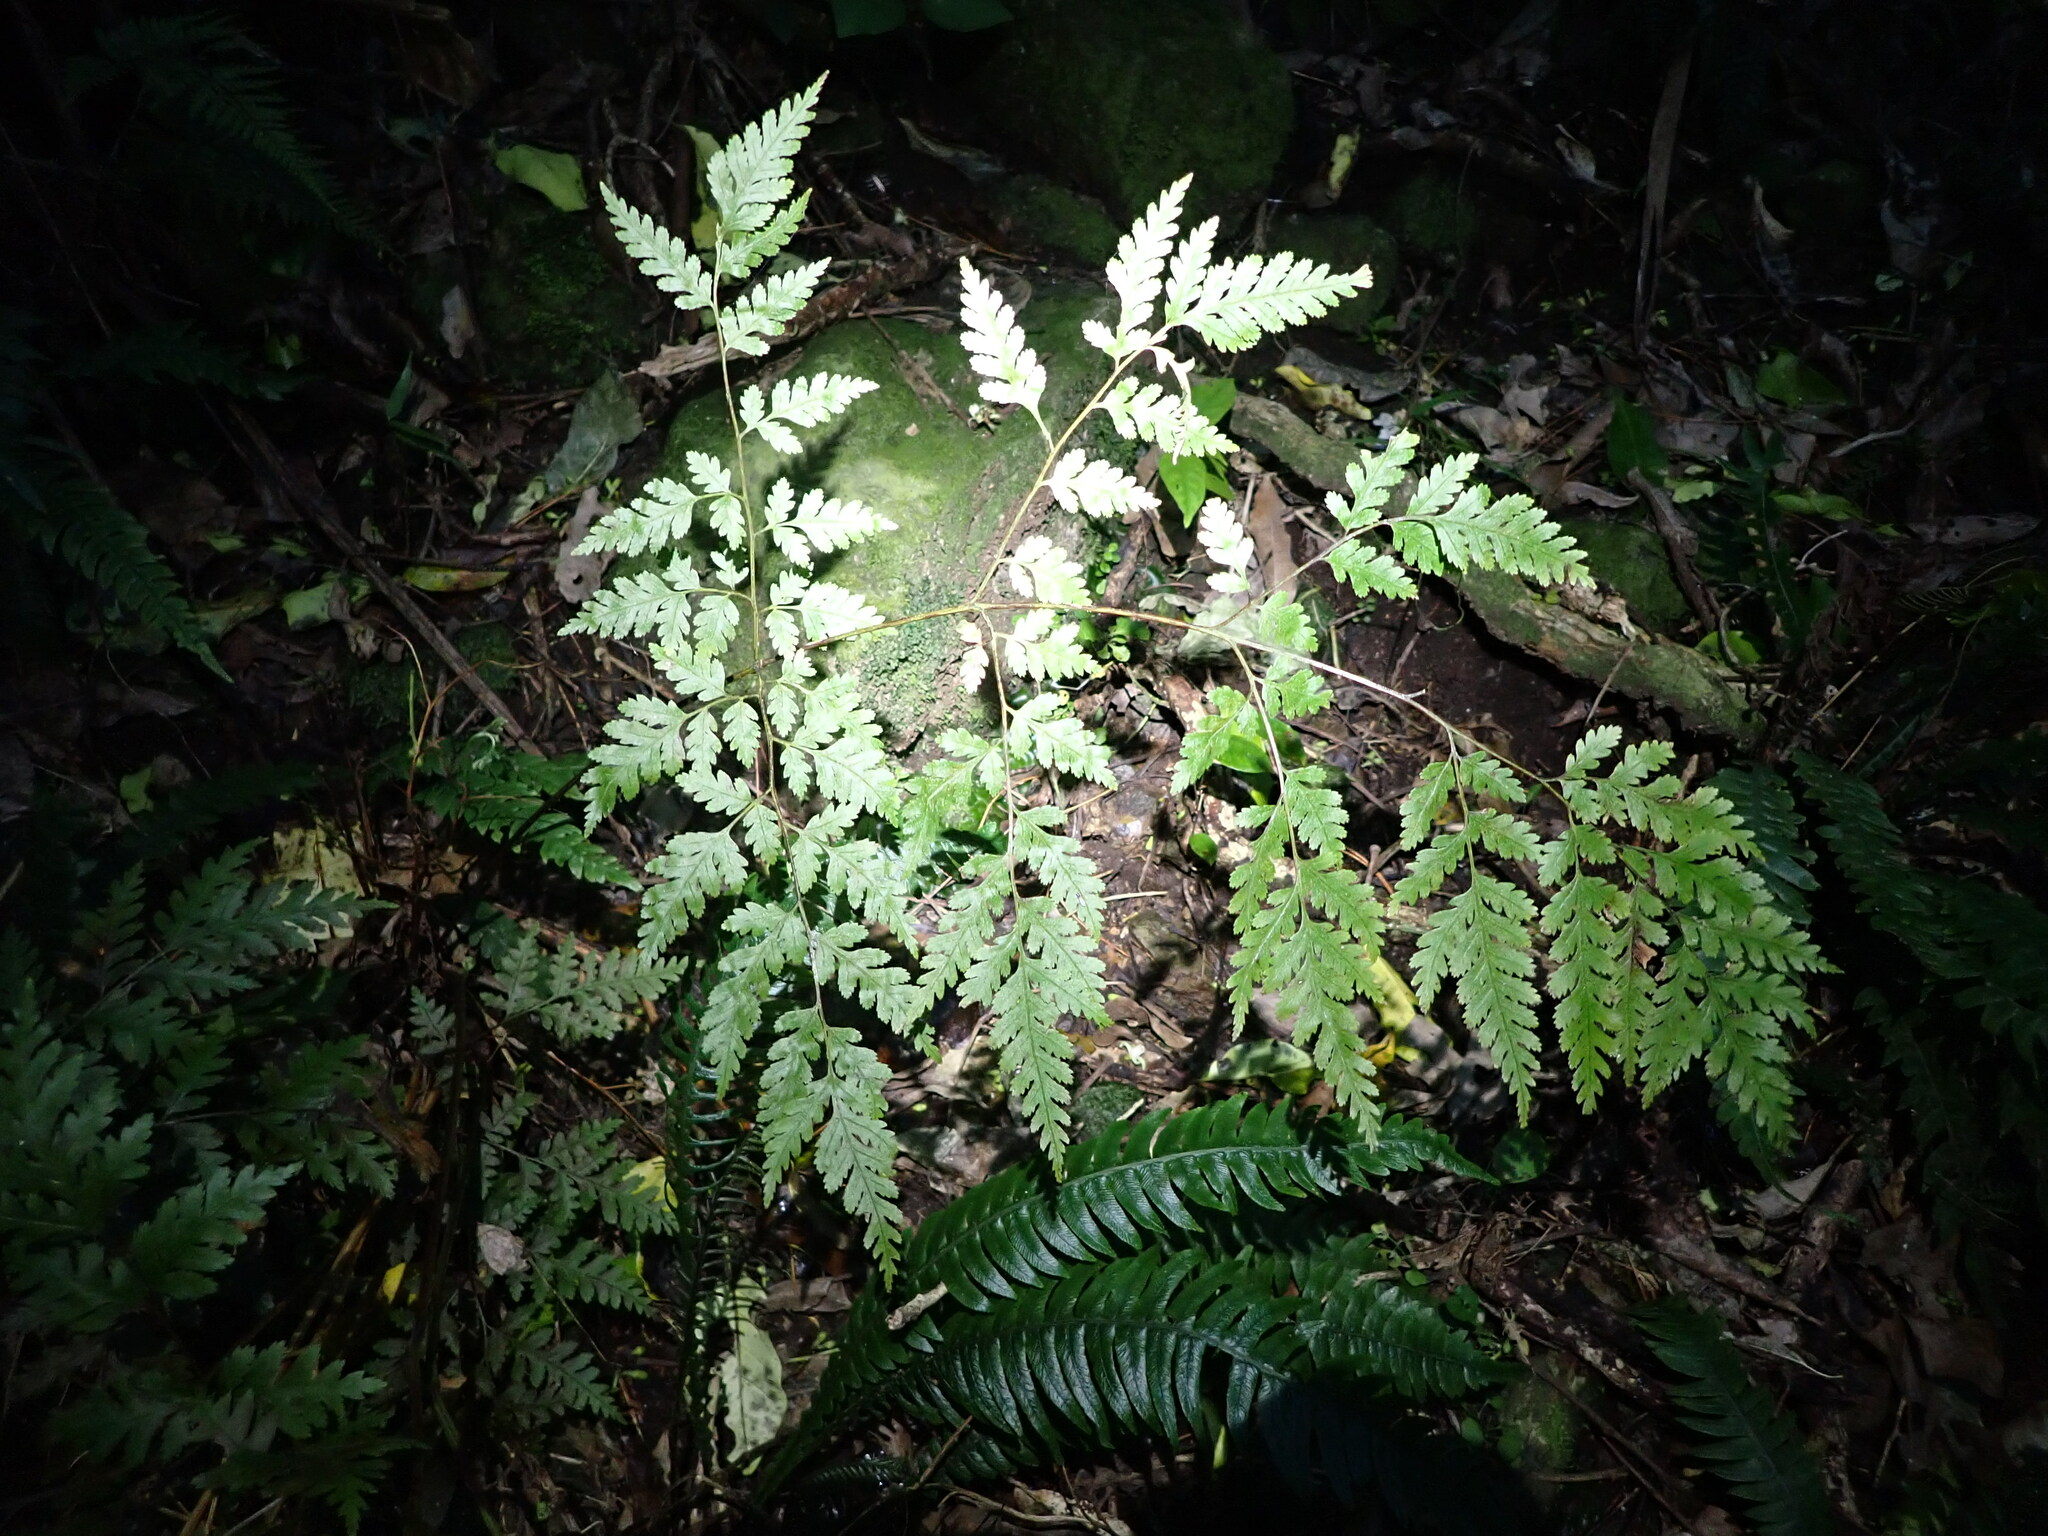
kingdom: Plantae
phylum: Tracheophyta
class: Polypodiopsida
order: Polypodiales
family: Pteridaceae
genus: Pteris
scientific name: Pteris macilenta
